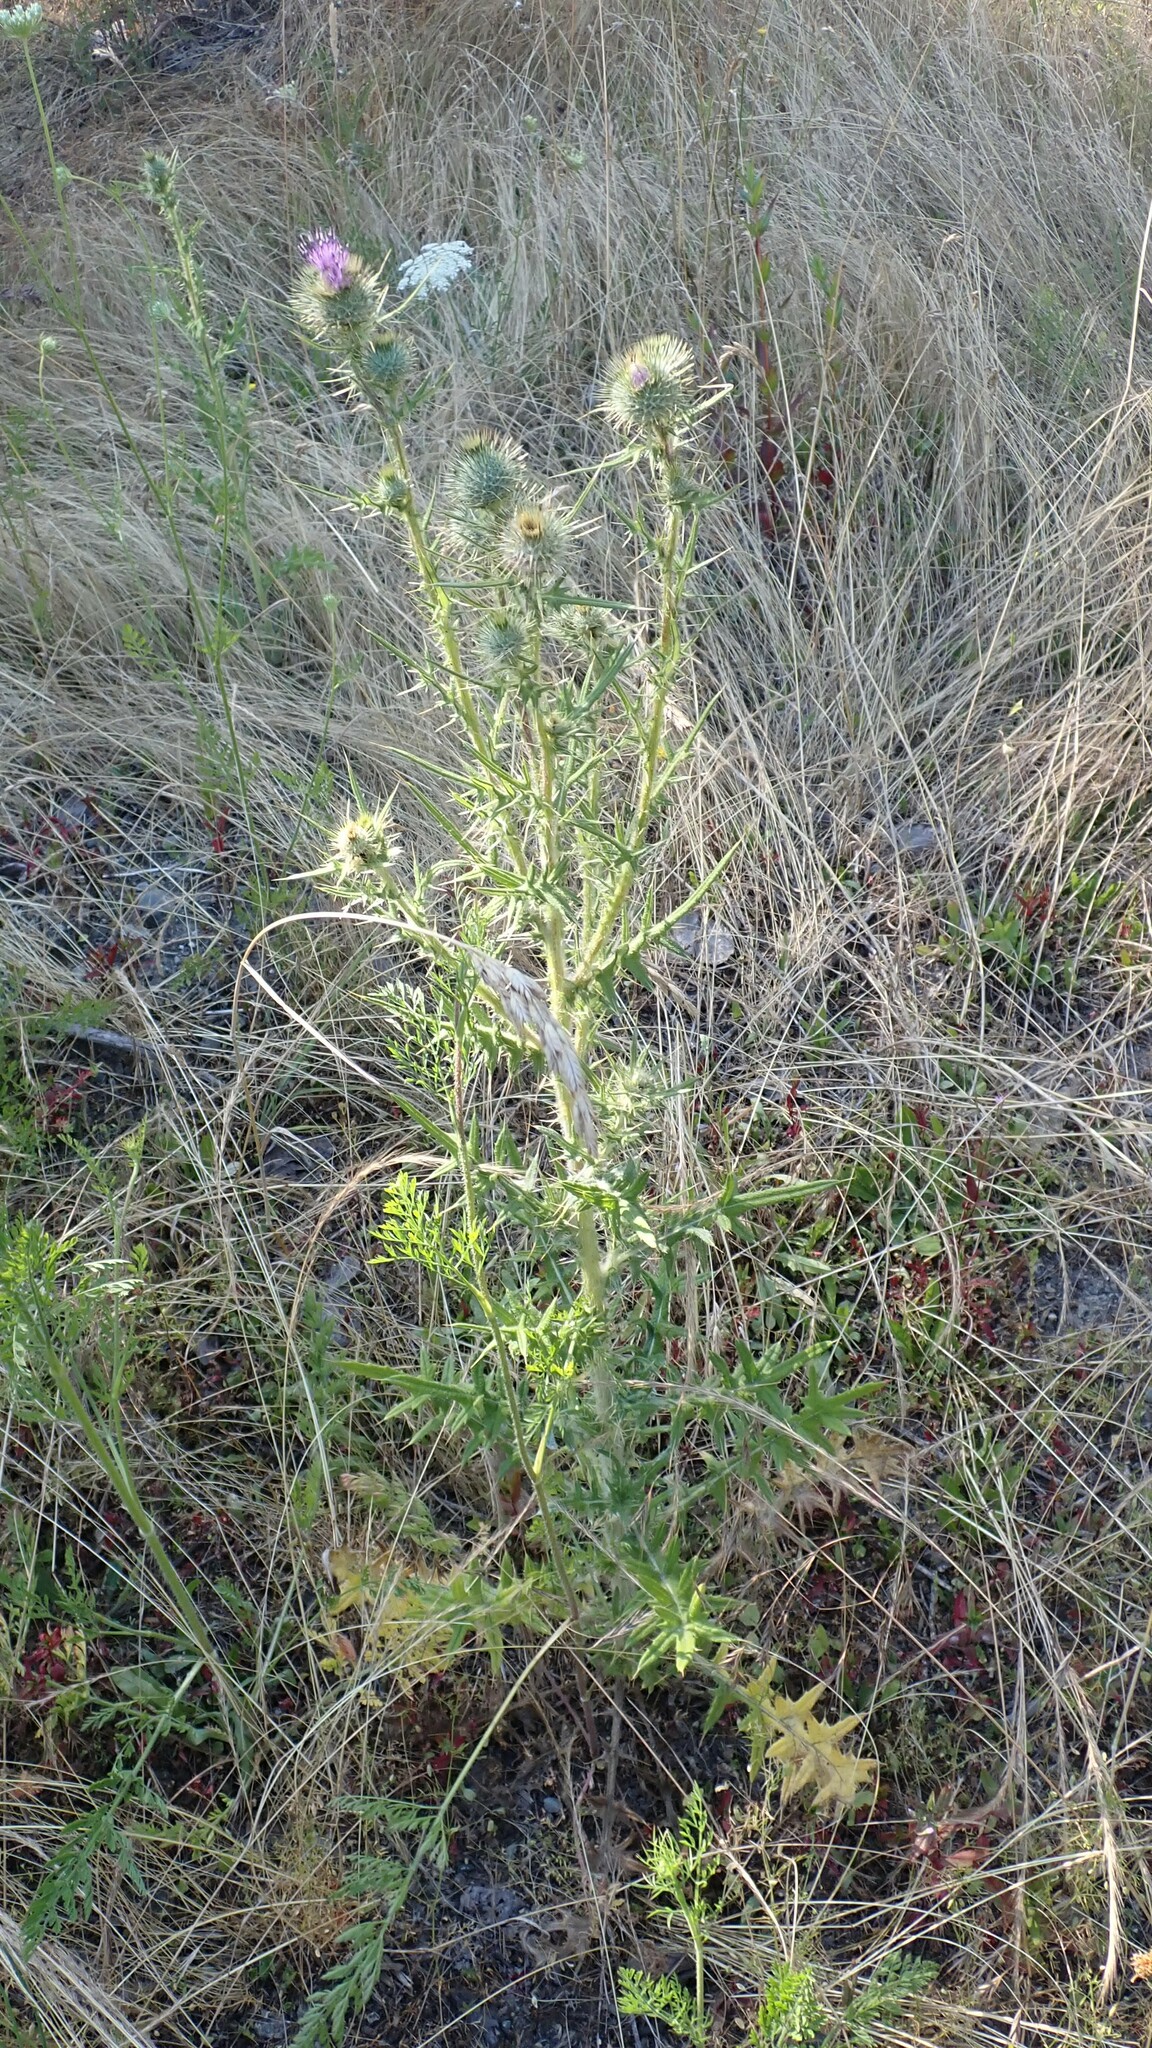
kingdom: Plantae
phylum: Tracheophyta
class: Magnoliopsida
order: Asterales
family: Asteraceae
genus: Cirsium
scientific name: Cirsium vulgare
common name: Bull thistle
